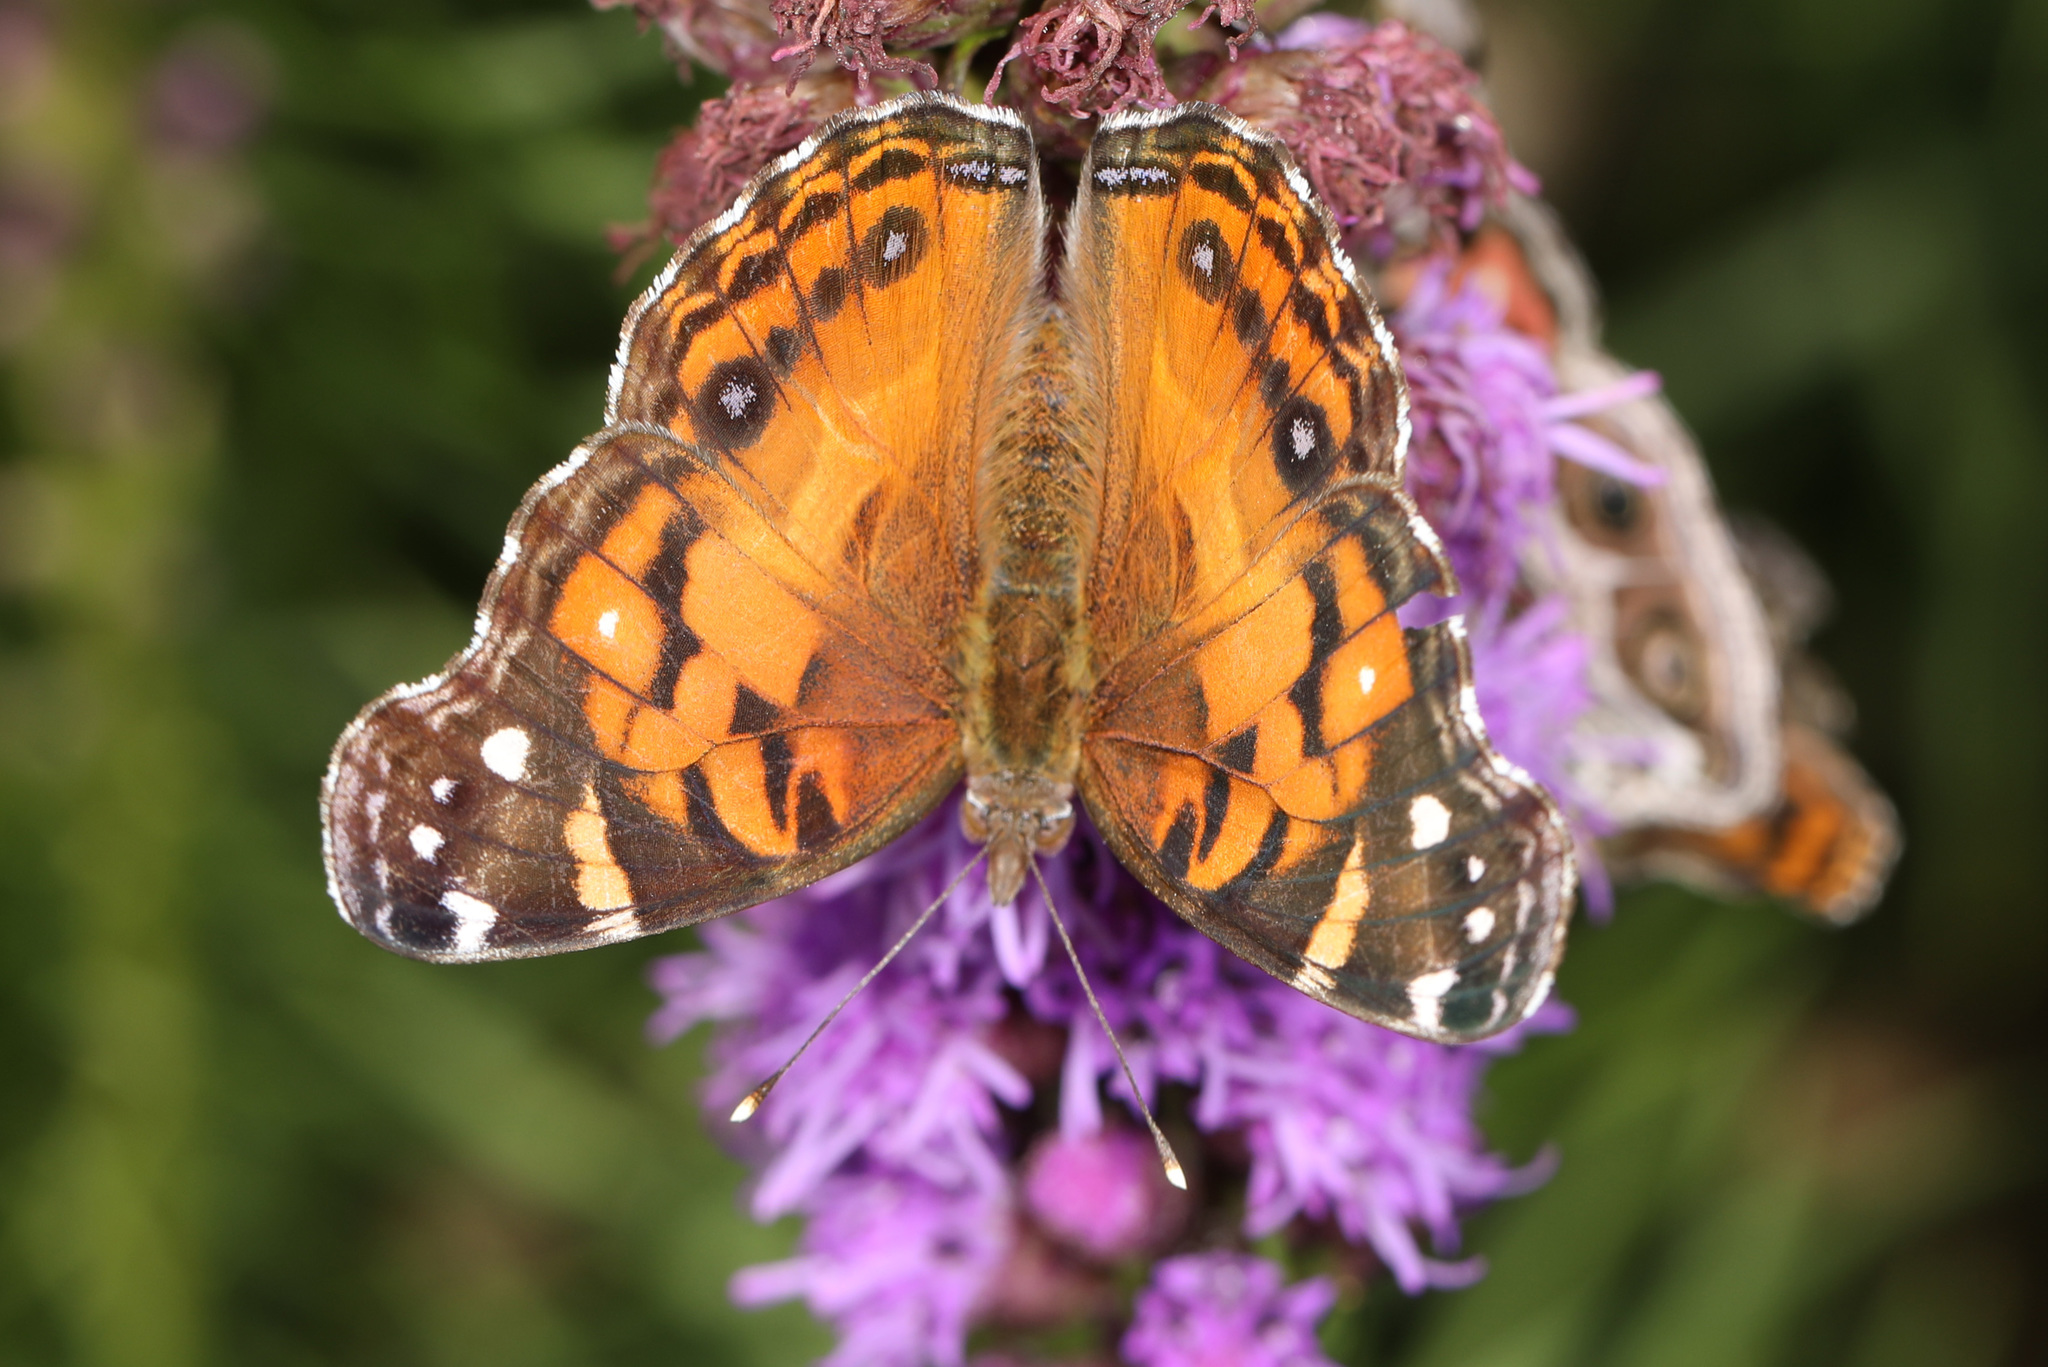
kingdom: Animalia
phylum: Arthropoda
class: Insecta
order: Lepidoptera
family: Nymphalidae
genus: Vanessa
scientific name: Vanessa virginiensis
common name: American lady
